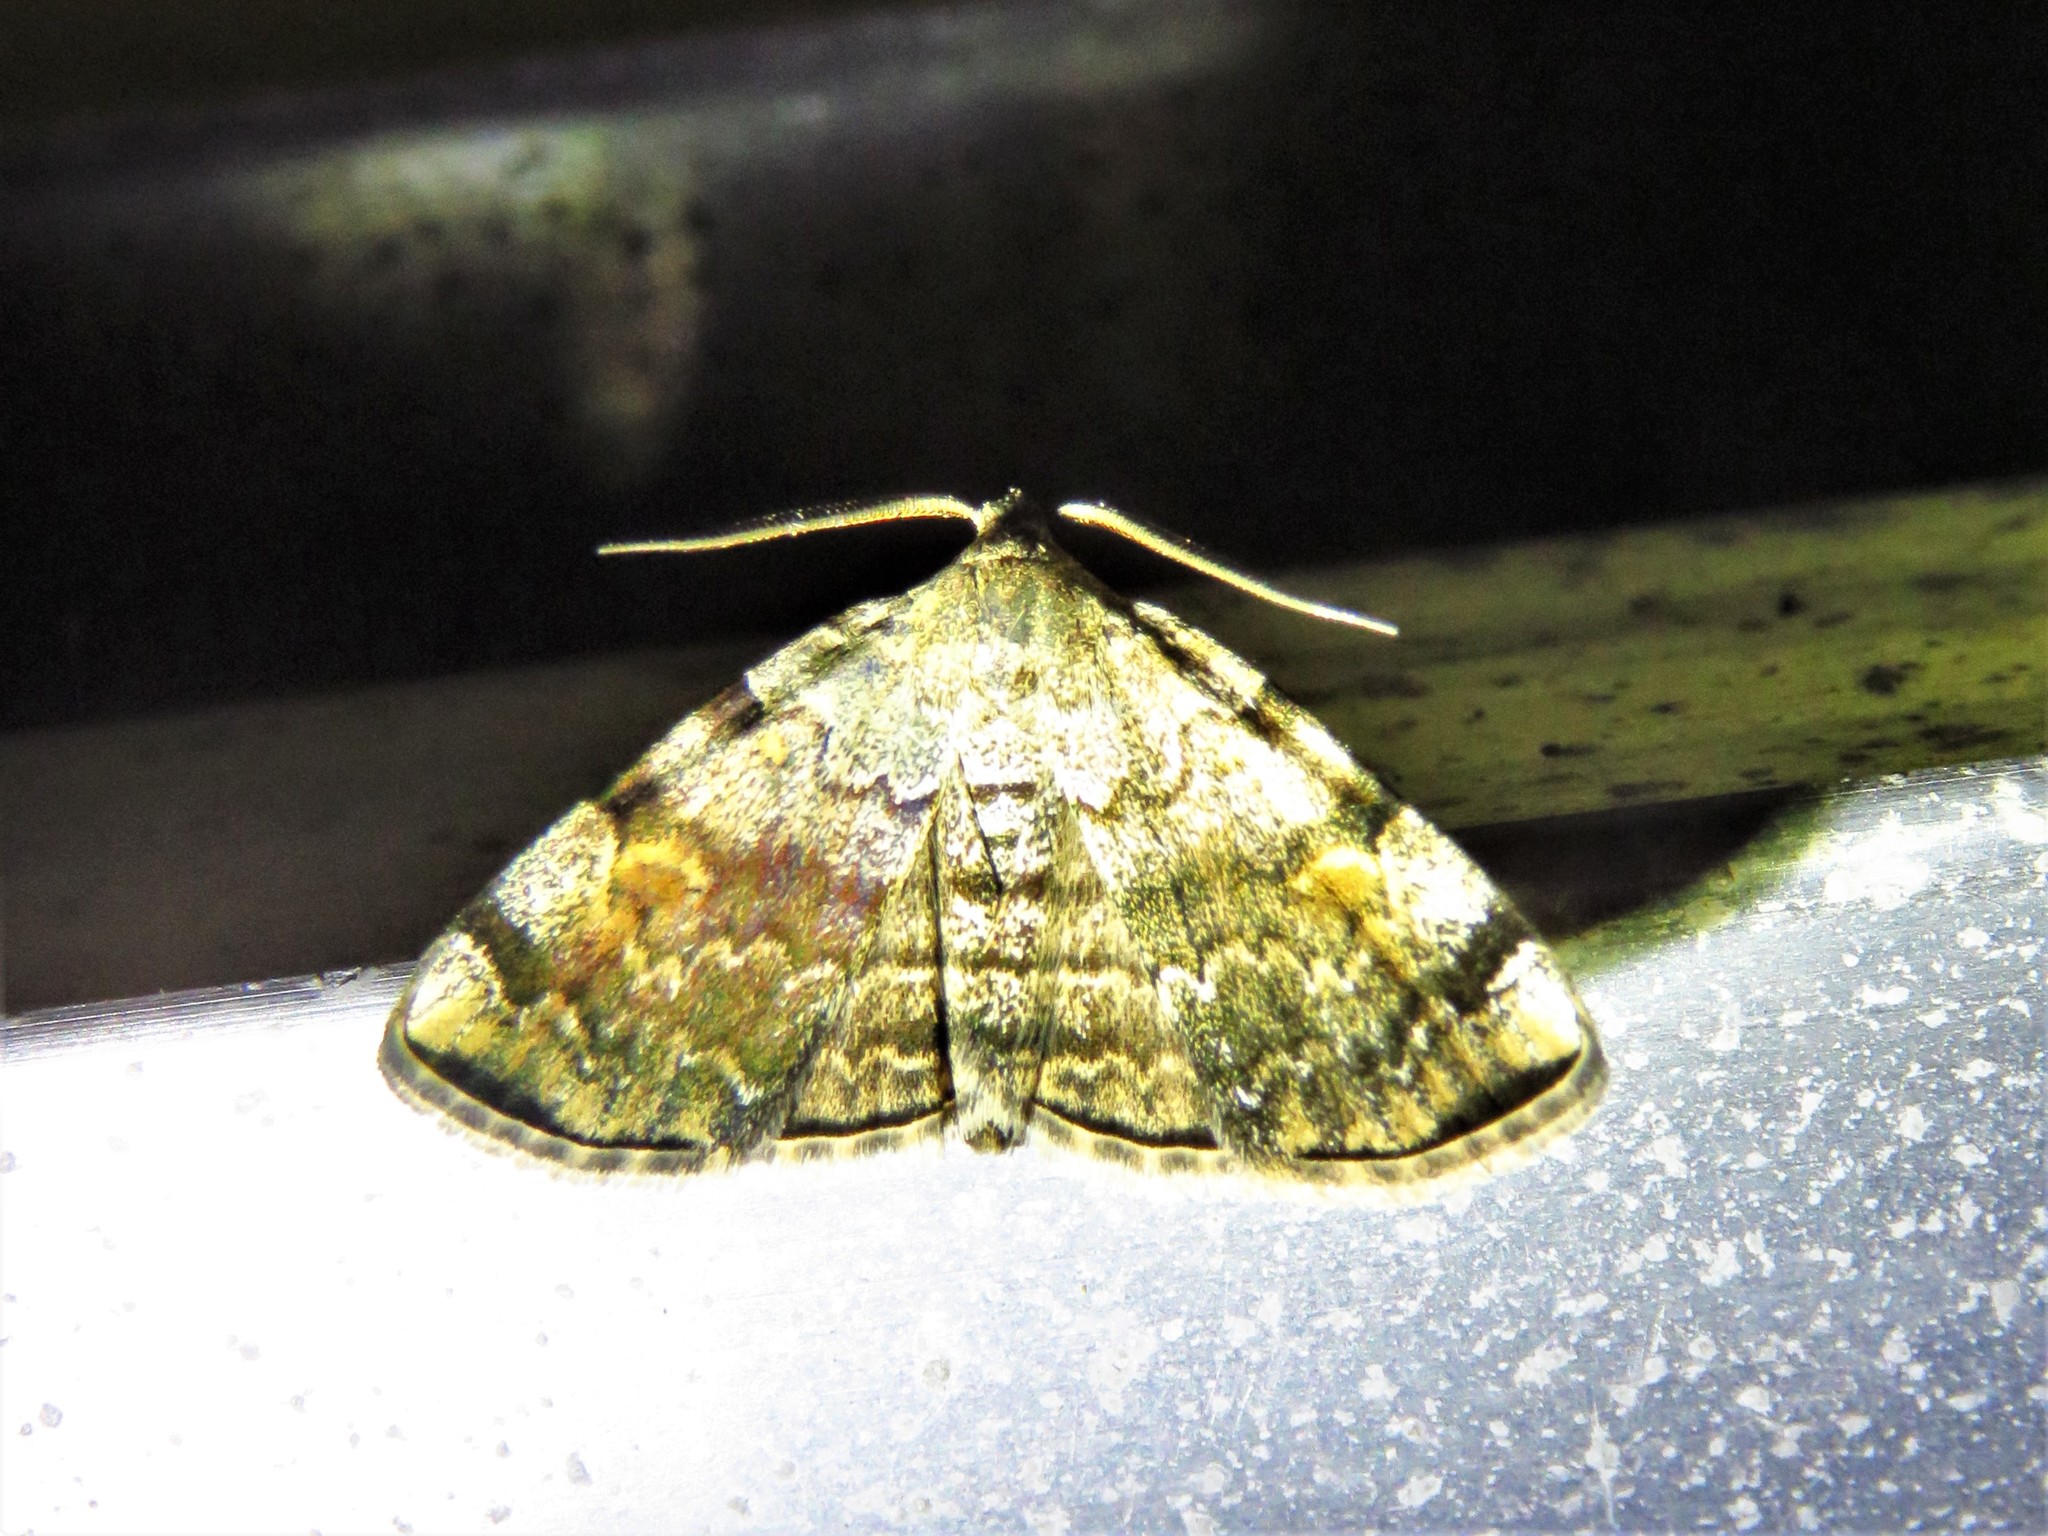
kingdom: Animalia
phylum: Arthropoda
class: Insecta
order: Lepidoptera
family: Erebidae
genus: Idia
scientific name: Idia americalis
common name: American idia moth
